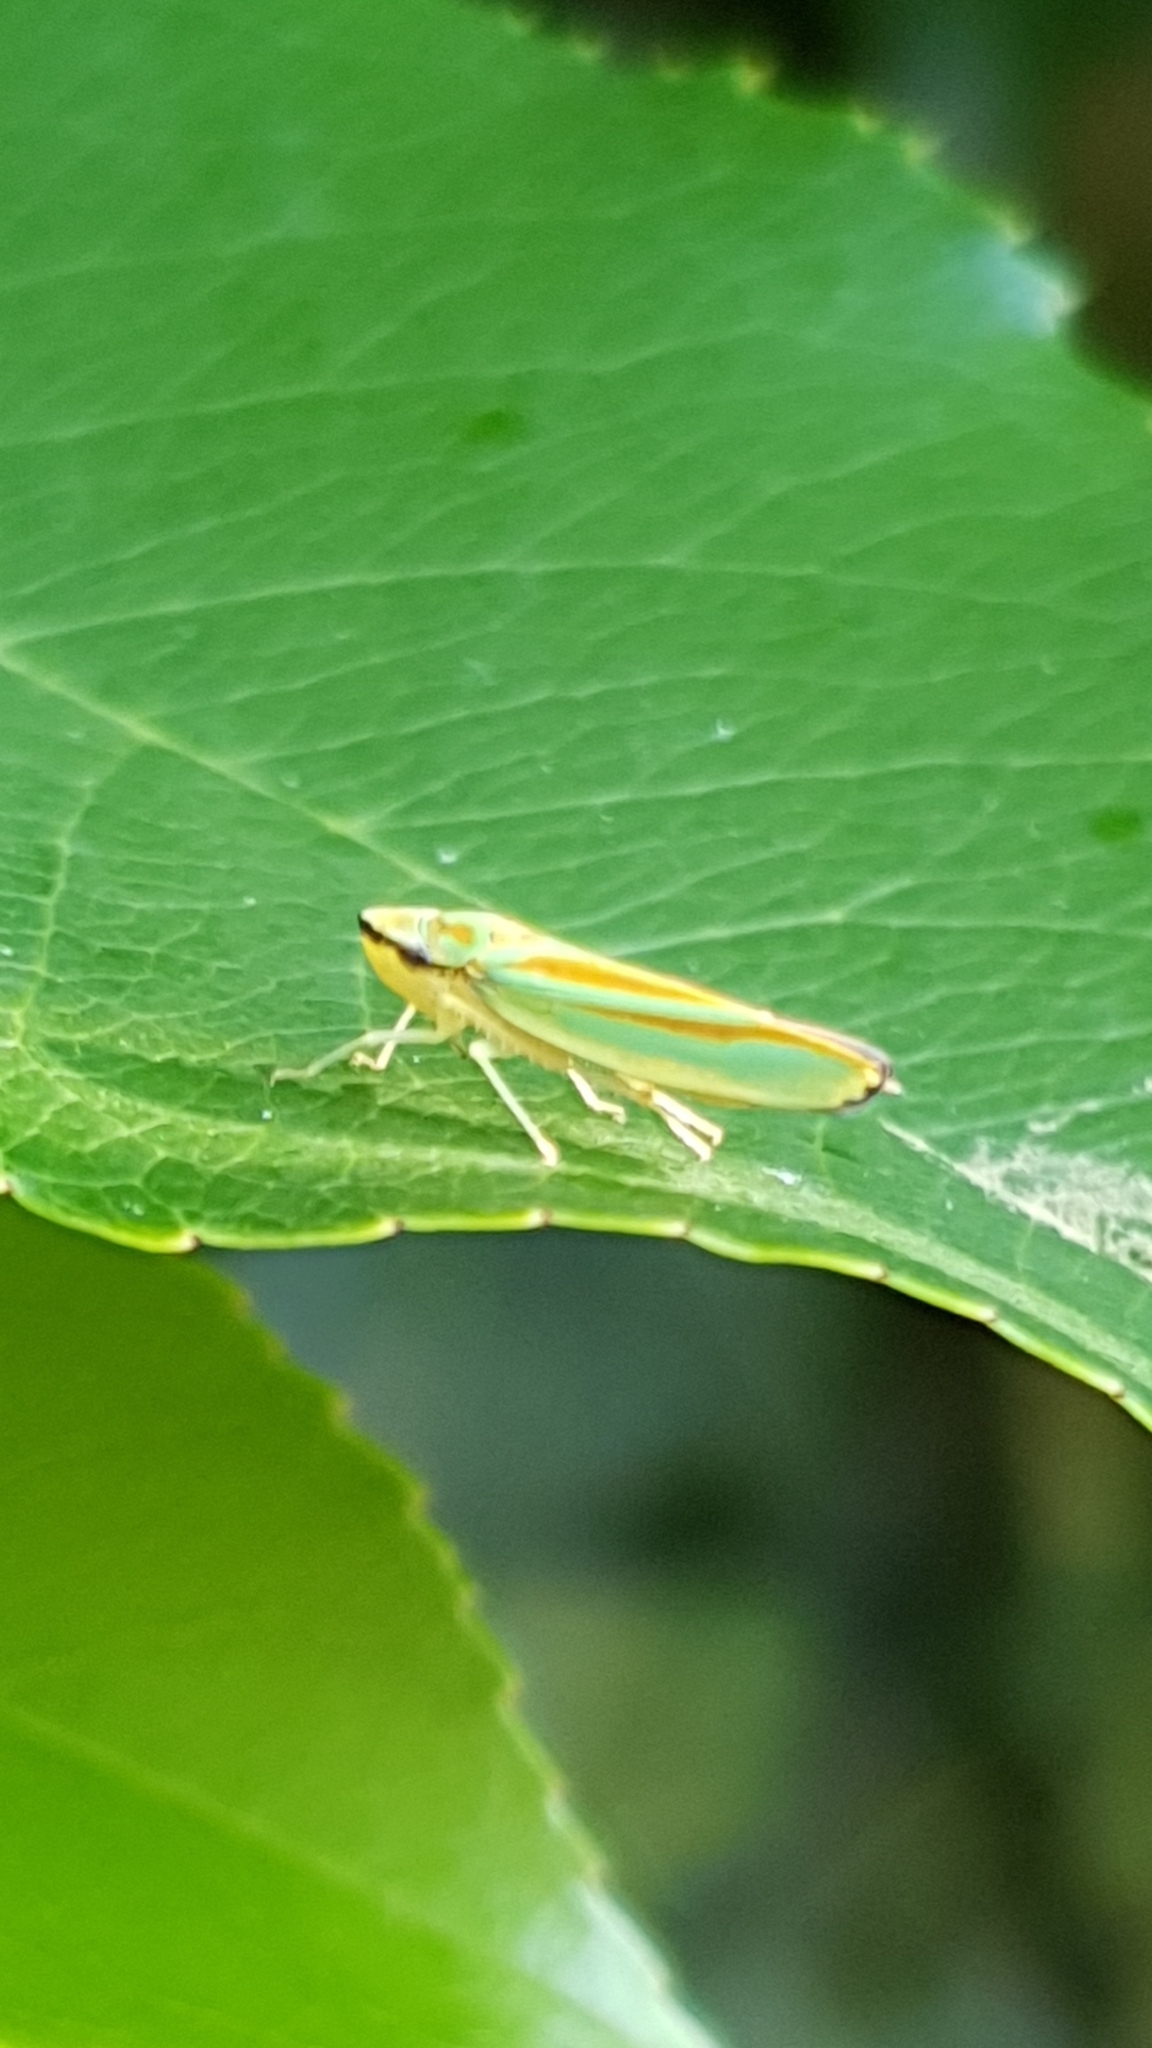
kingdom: Animalia
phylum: Arthropoda
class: Insecta
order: Hemiptera
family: Cicadellidae
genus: Graphocephala
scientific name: Graphocephala fennahi
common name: Rhododendron leafhopper
